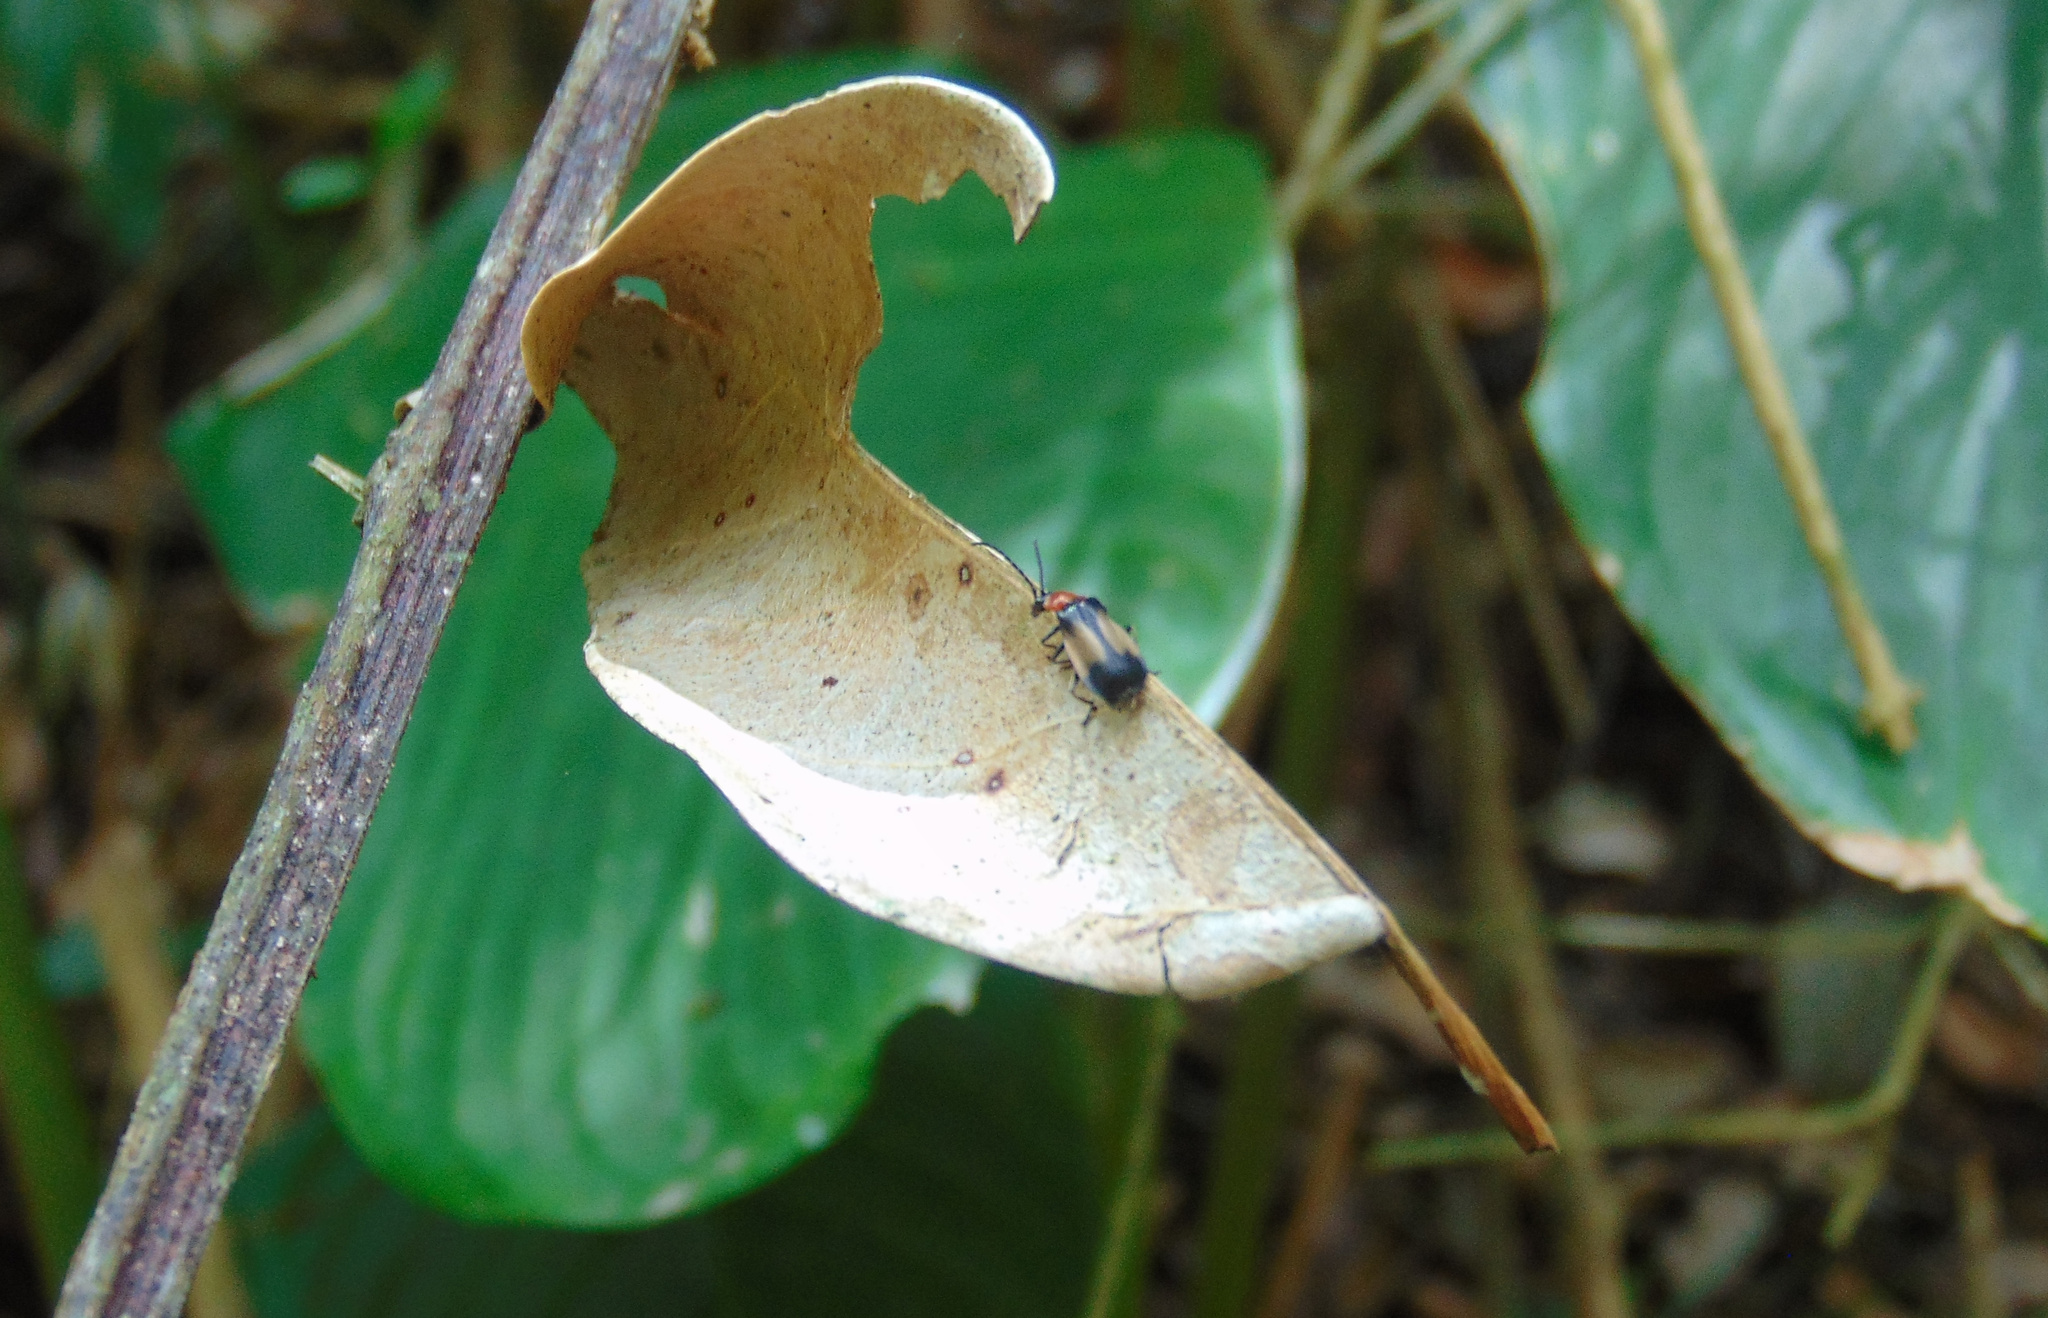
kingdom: Animalia
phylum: Arthropoda
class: Insecta
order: Coleoptera
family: Cantharidae
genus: Silis
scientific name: Silis
